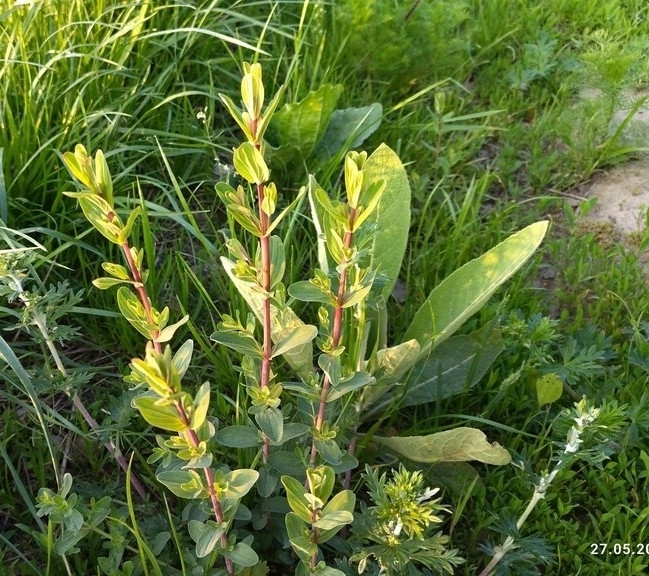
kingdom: Plantae
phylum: Tracheophyta
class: Magnoliopsida
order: Malpighiales
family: Hypericaceae
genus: Hypericum
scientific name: Hypericum perforatum
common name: Common st. johnswort
